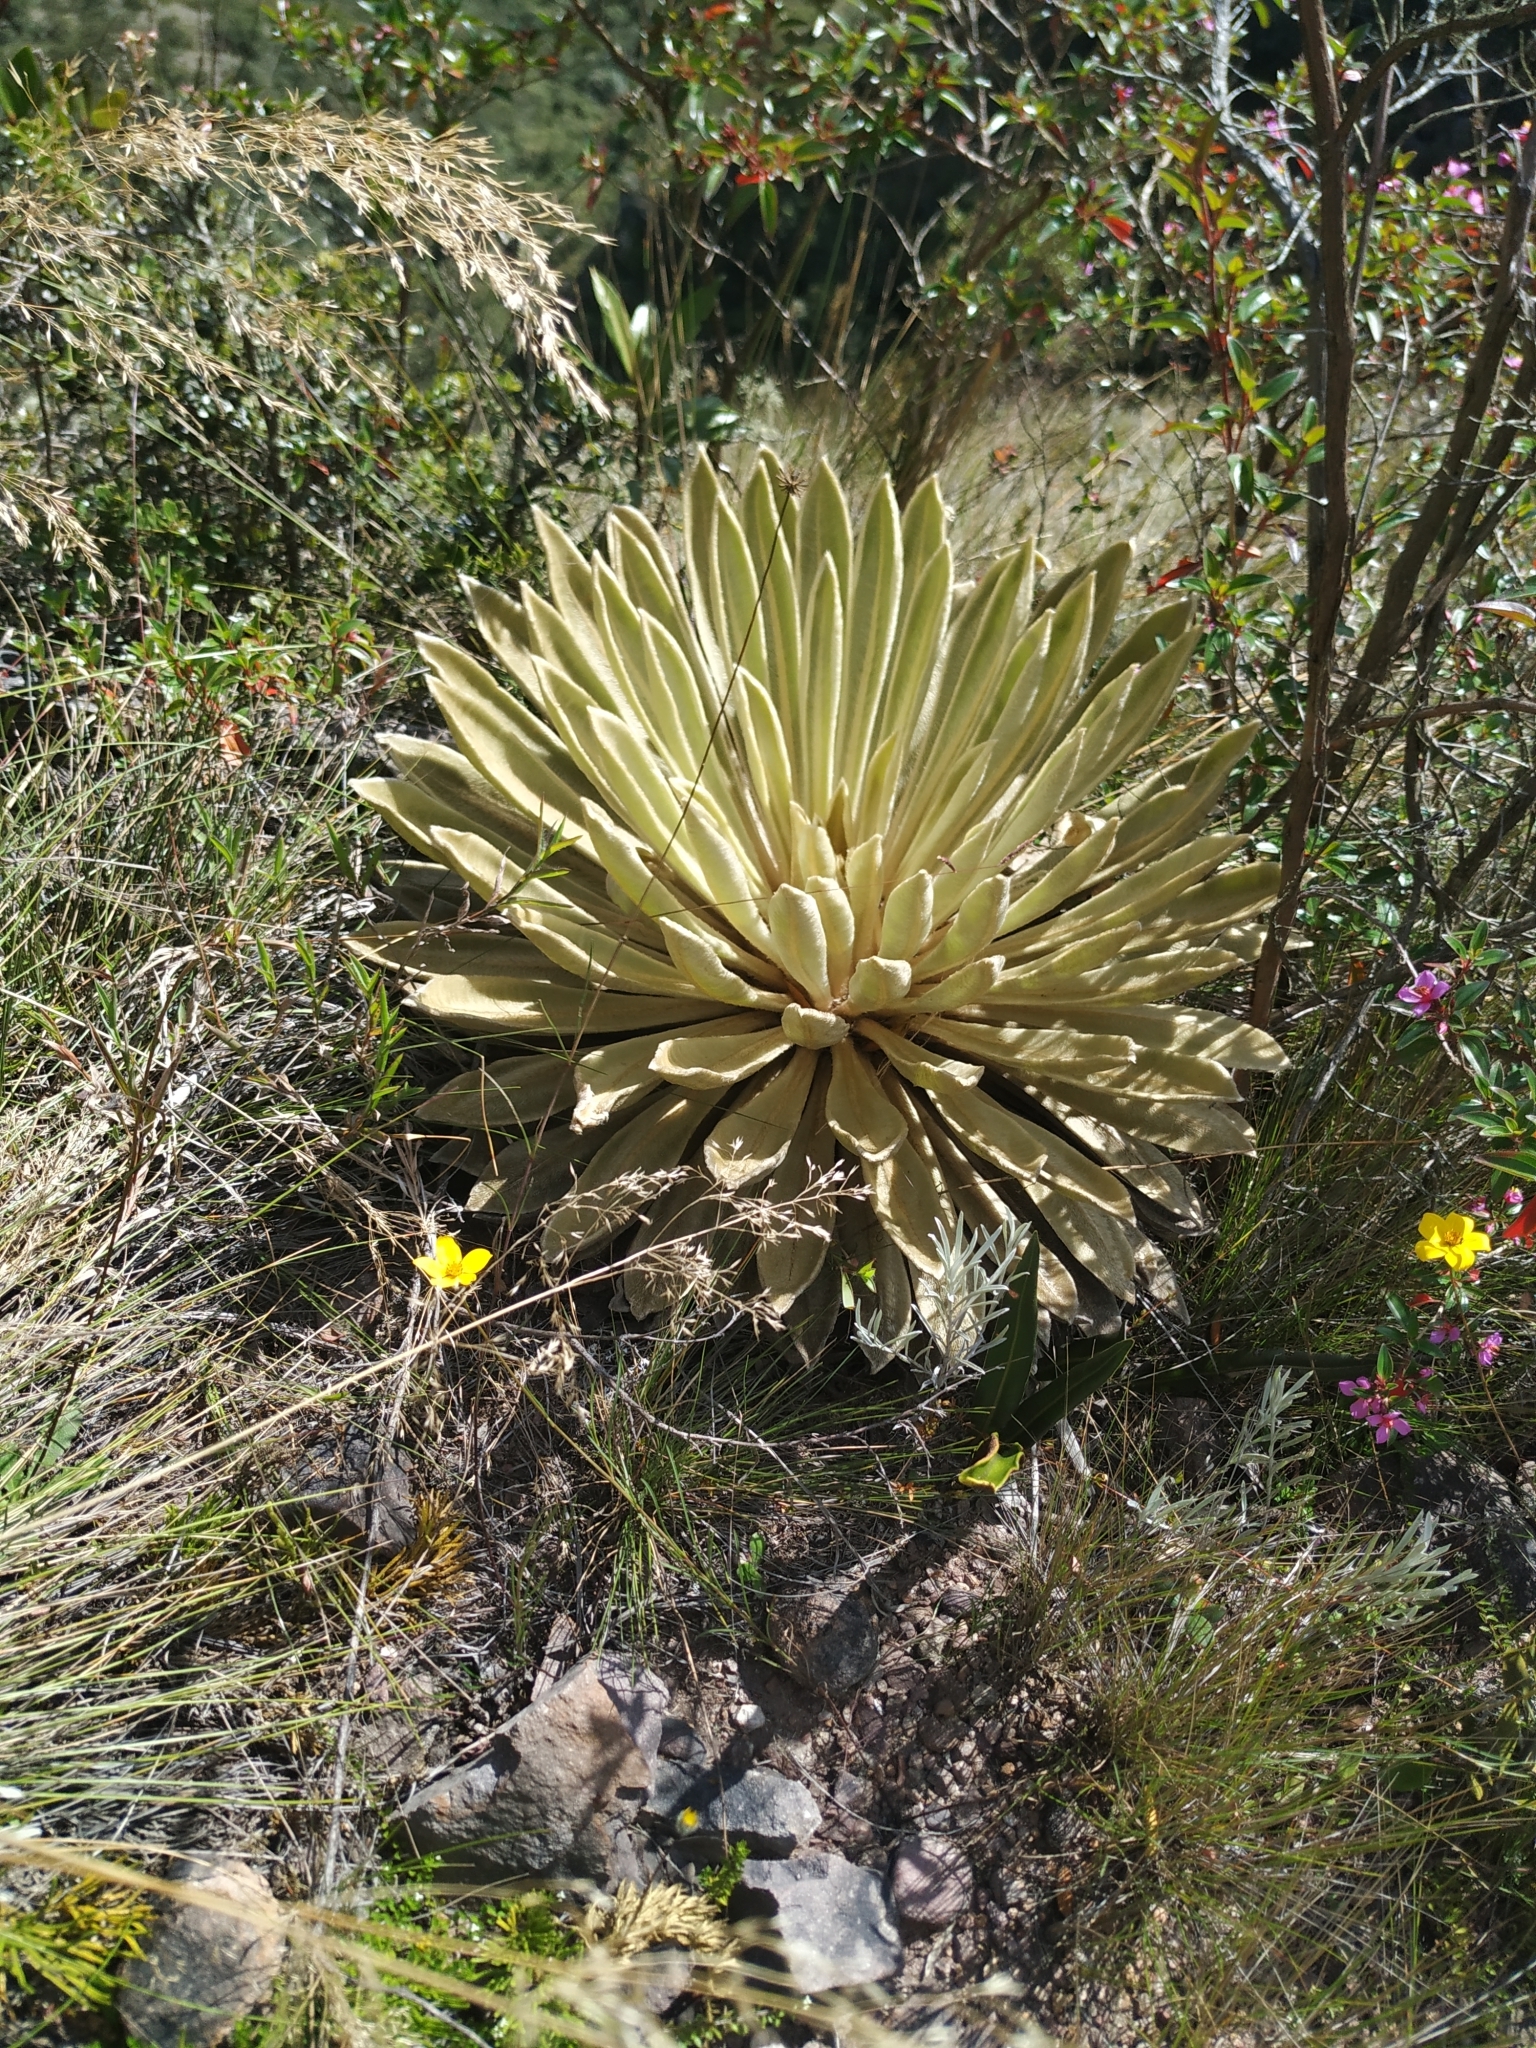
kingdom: Plantae
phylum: Tracheophyta
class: Magnoliopsida
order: Asterales
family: Asteraceae
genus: Espeletia
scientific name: Espeletia muiska
